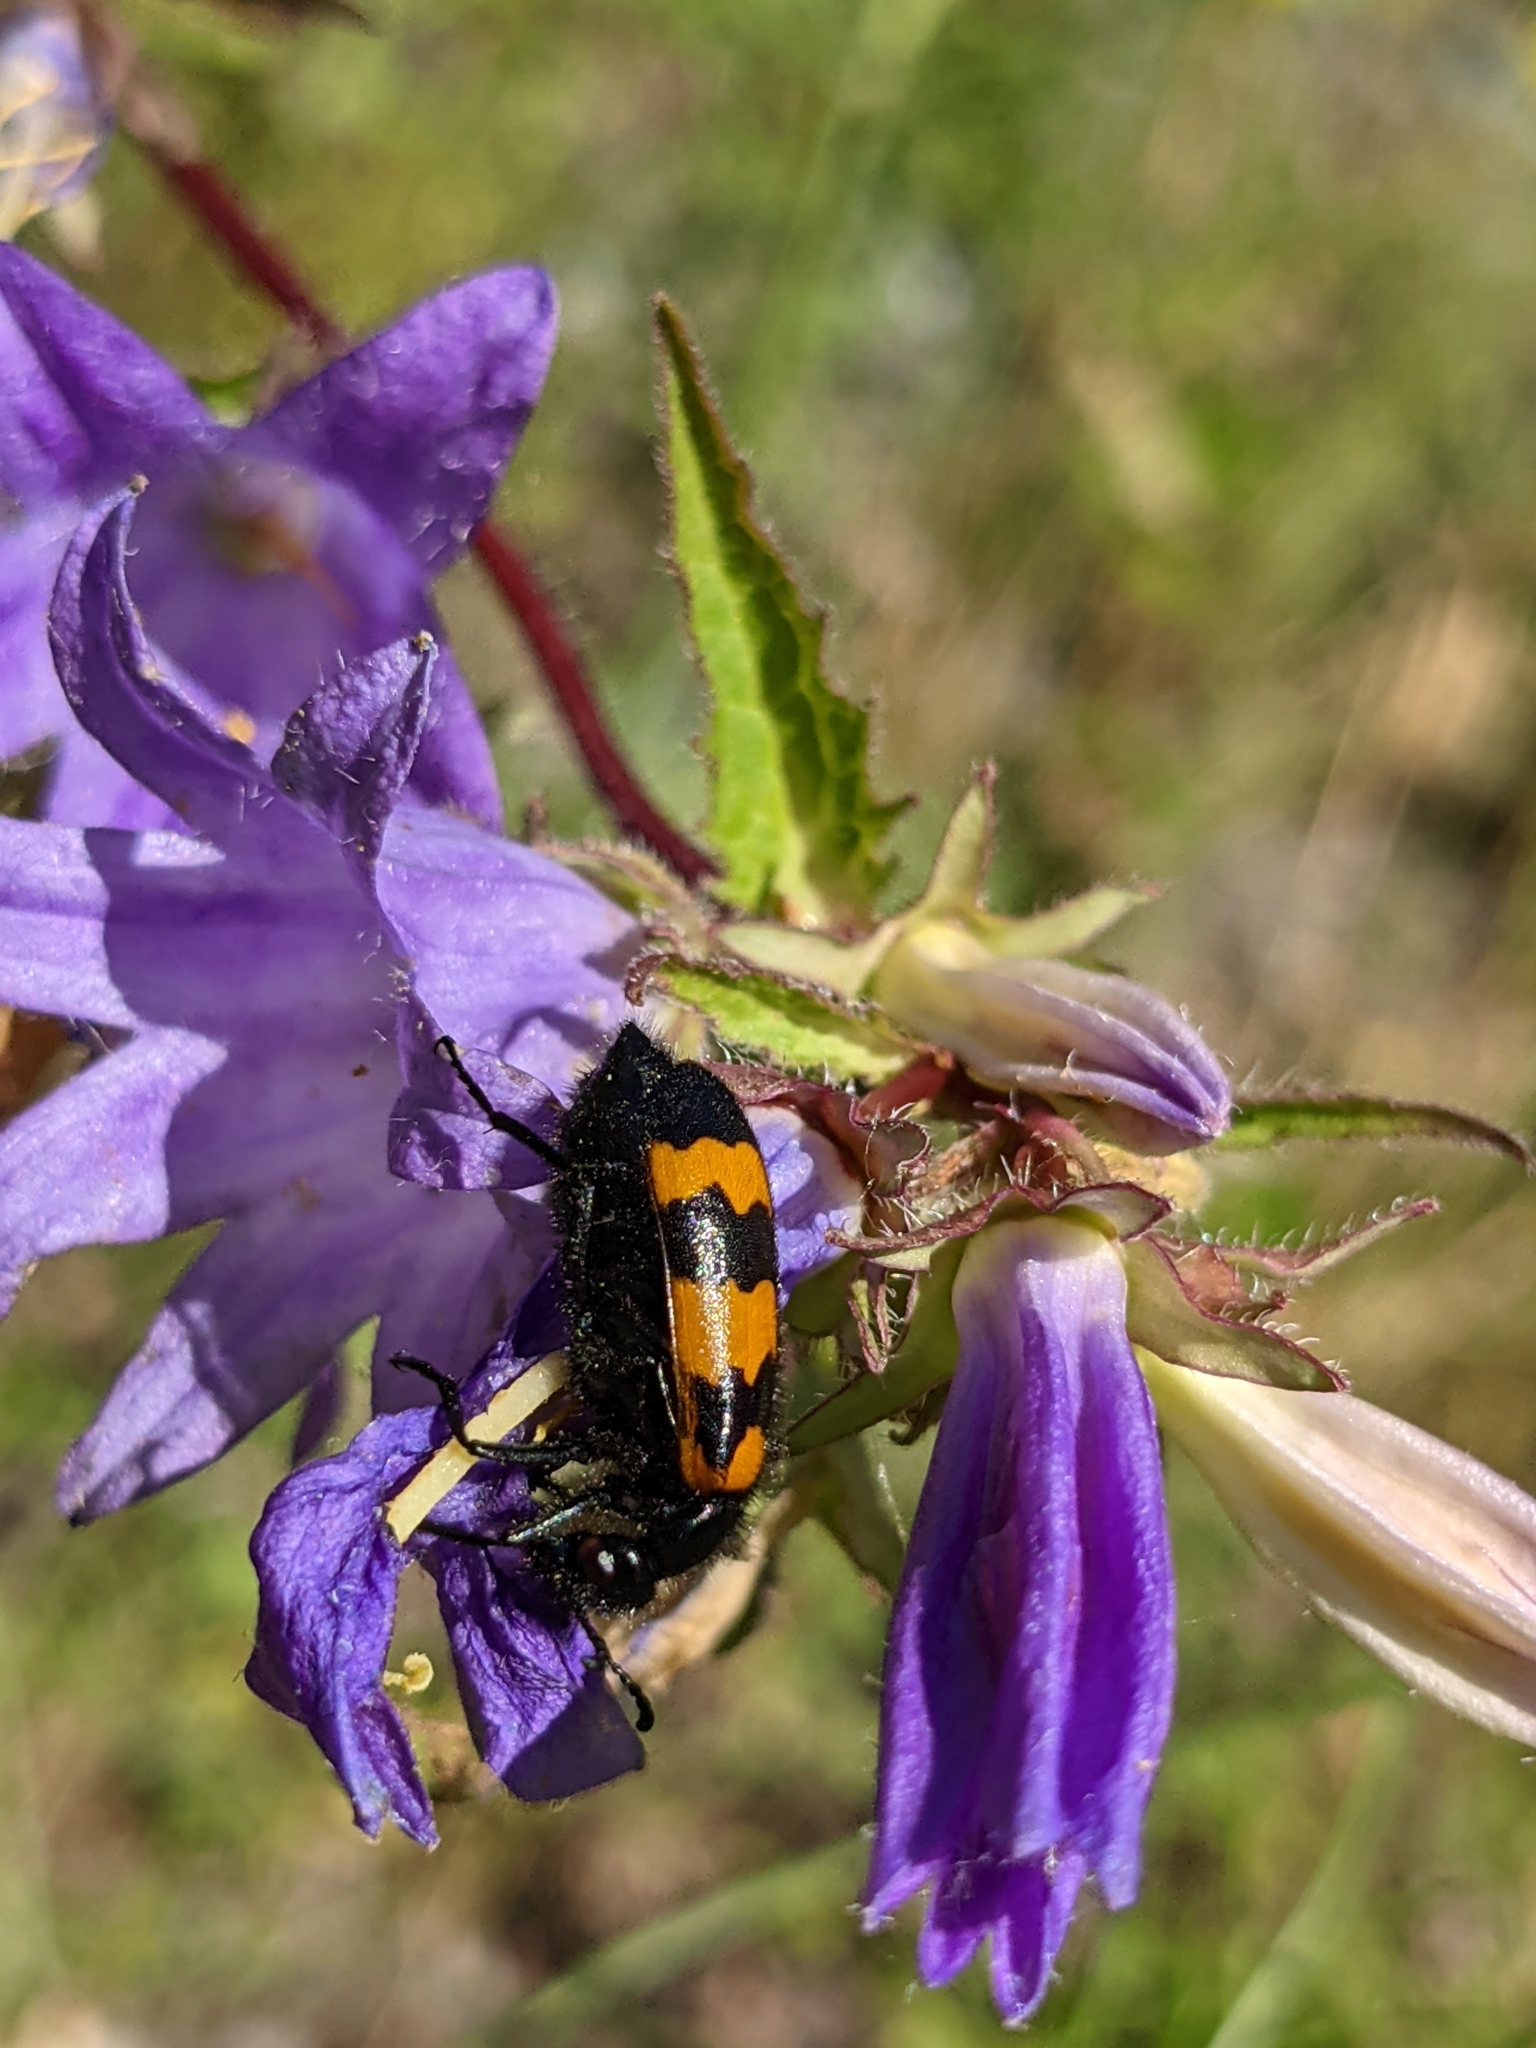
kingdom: Animalia
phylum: Arthropoda
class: Insecta
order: Coleoptera
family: Meloidae
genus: Mylabris
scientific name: Mylabris variabilis
